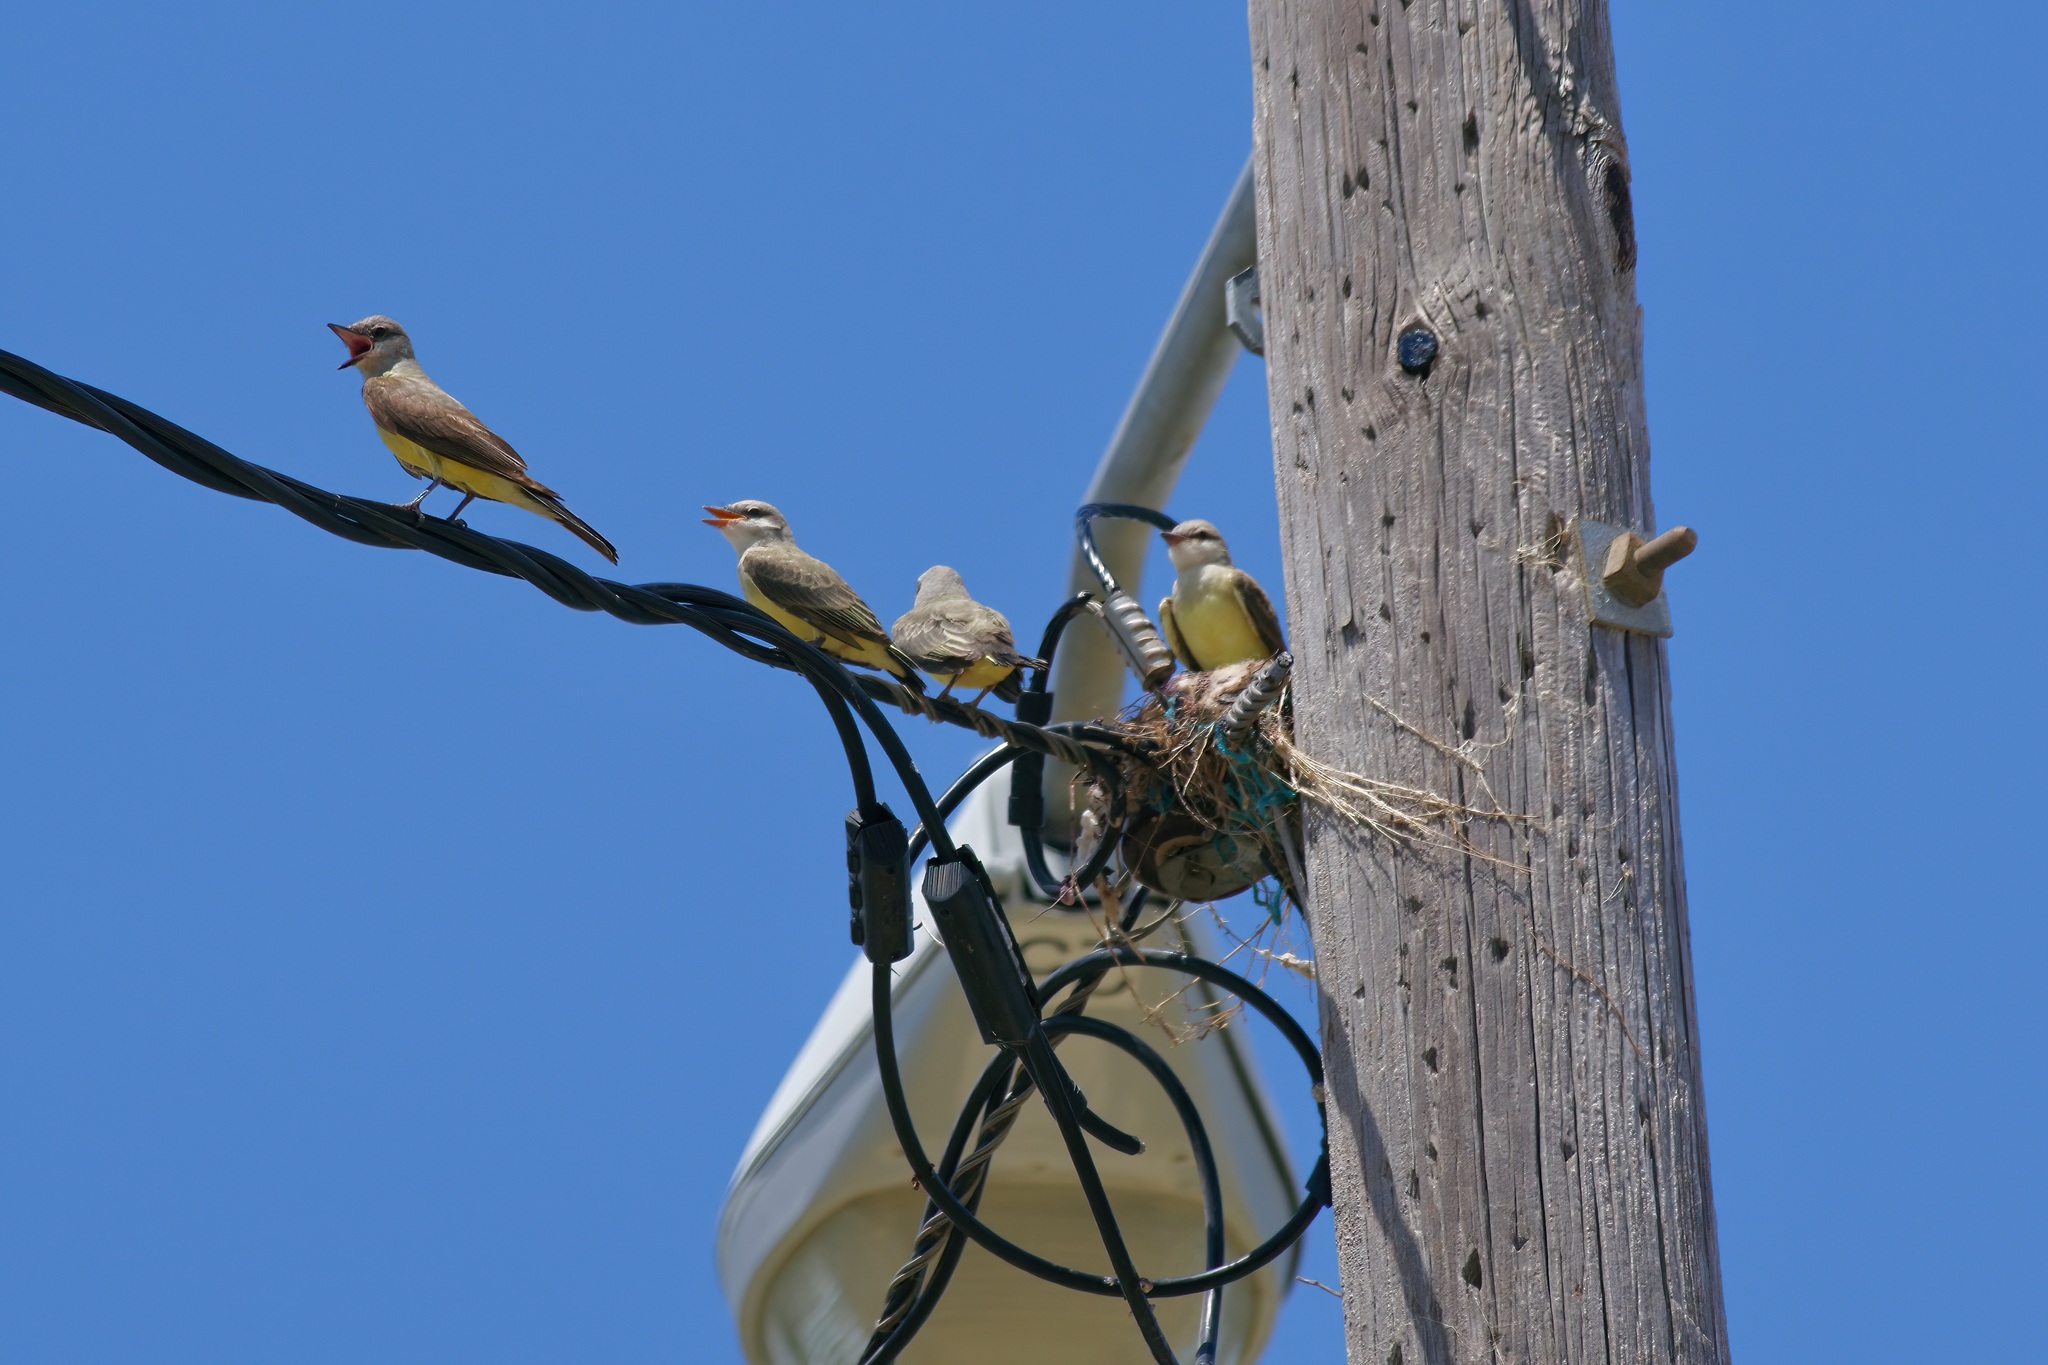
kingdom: Animalia
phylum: Chordata
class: Aves
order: Passeriformes
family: Tyrannidae
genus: Tyrannus
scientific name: Tyrannus verticalis
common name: Western kingbird
